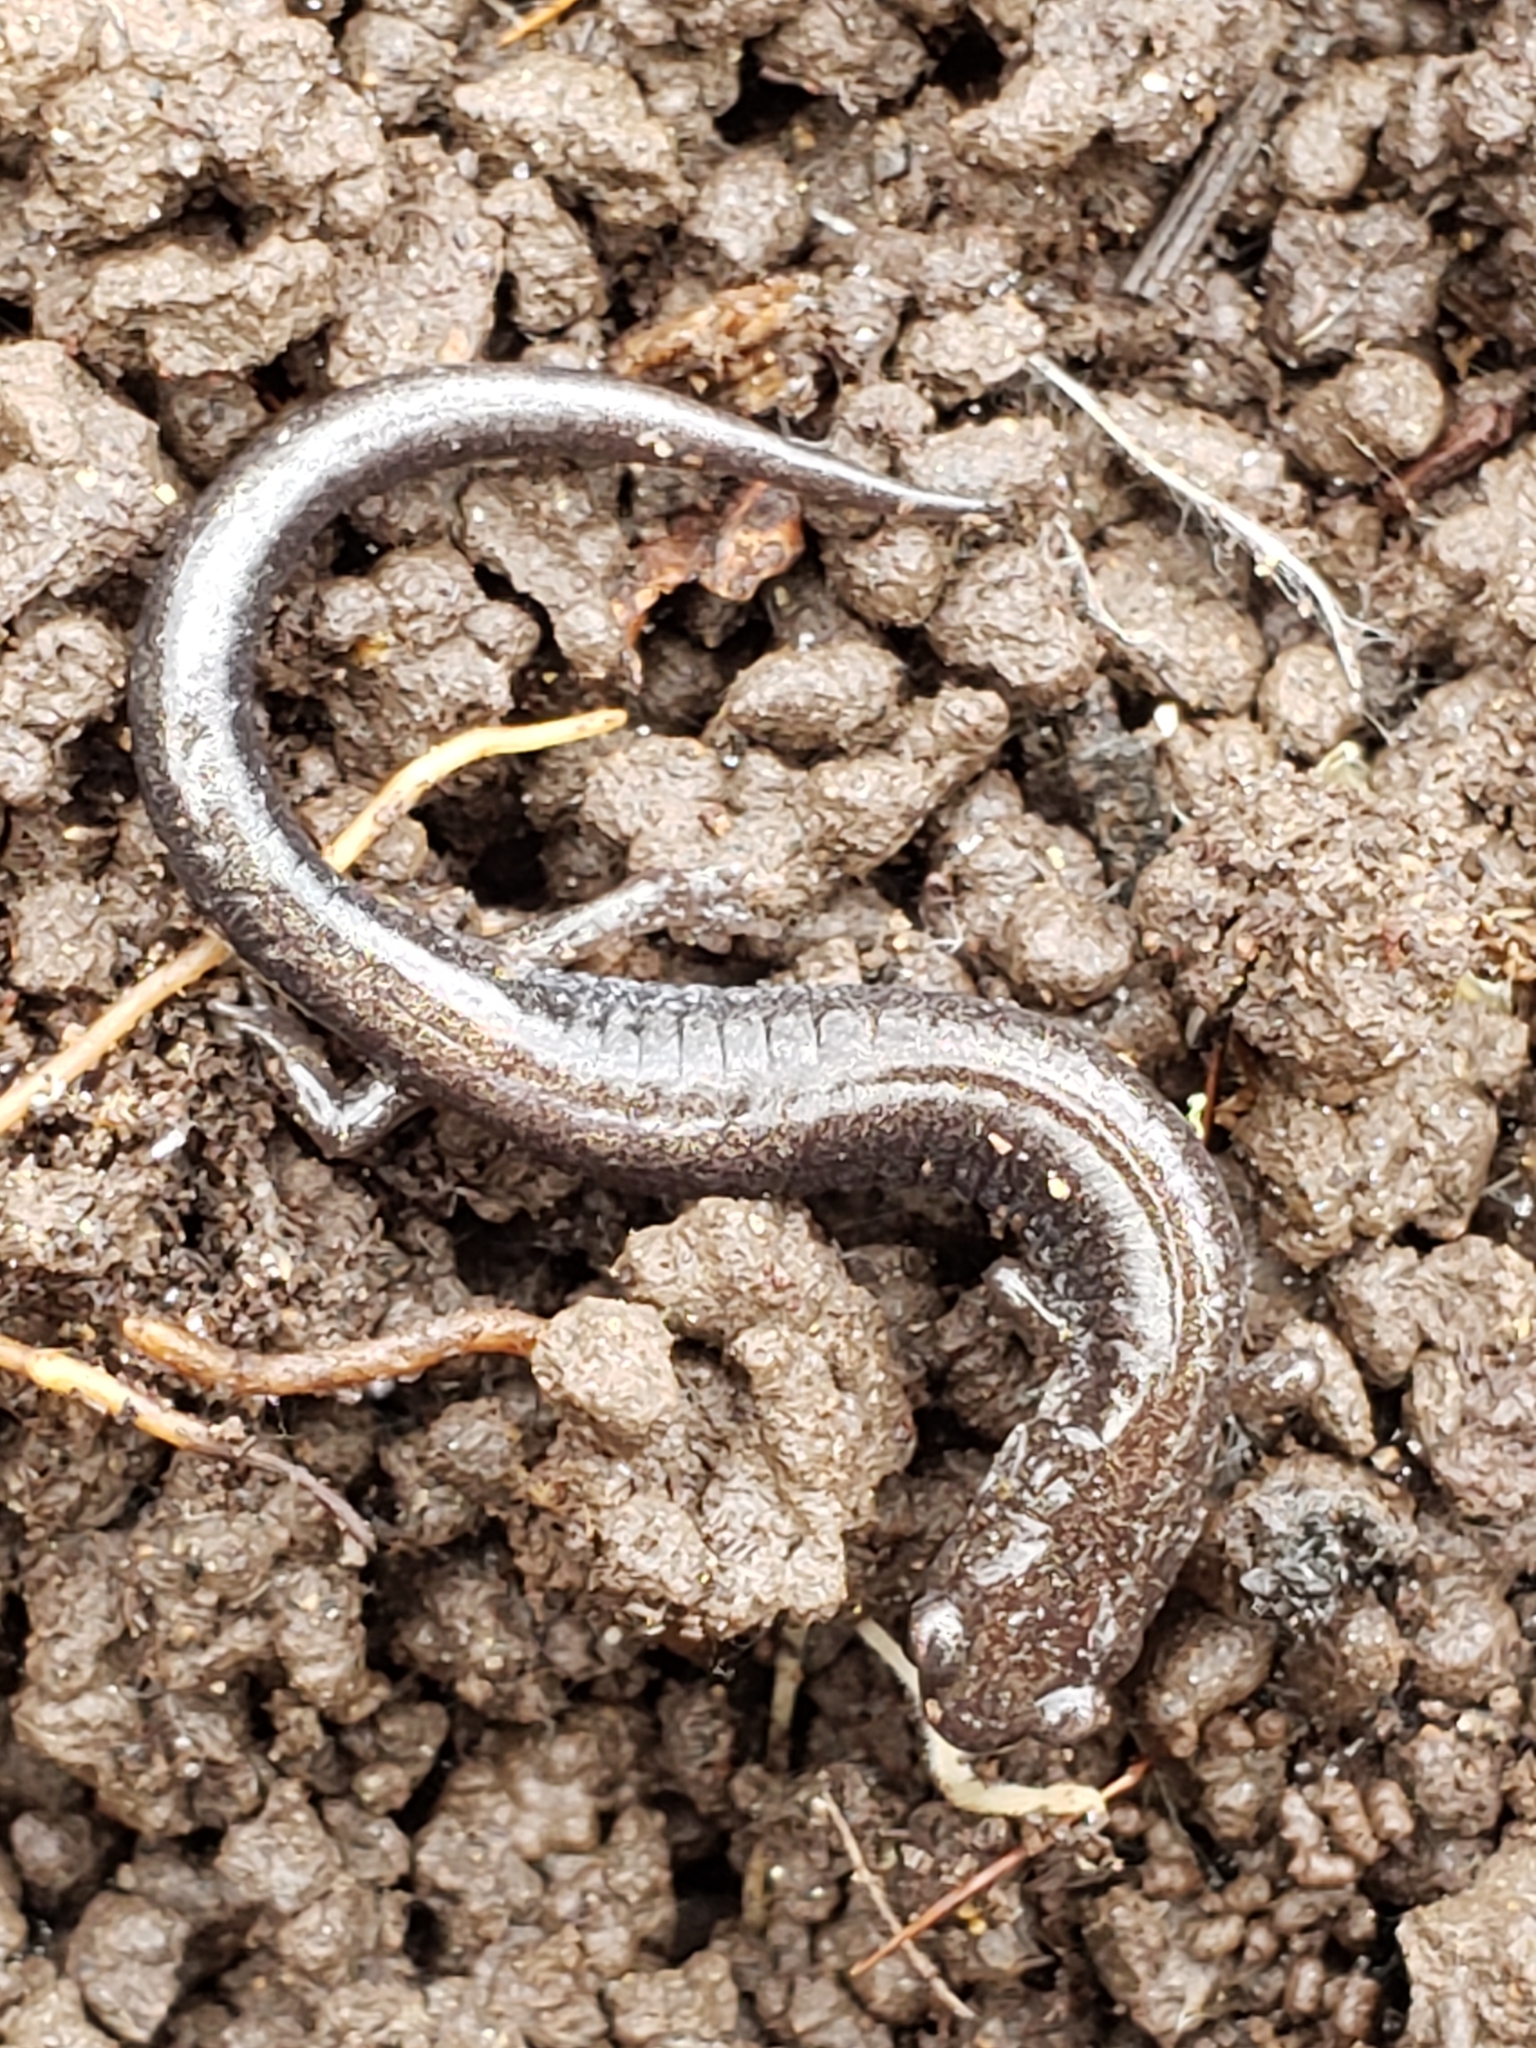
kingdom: Animalia
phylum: Chordata
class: Amphibia
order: Caudata
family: Plethodontidae
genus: Plethodon
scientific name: Plethodon cinereus
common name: Redback salamander
